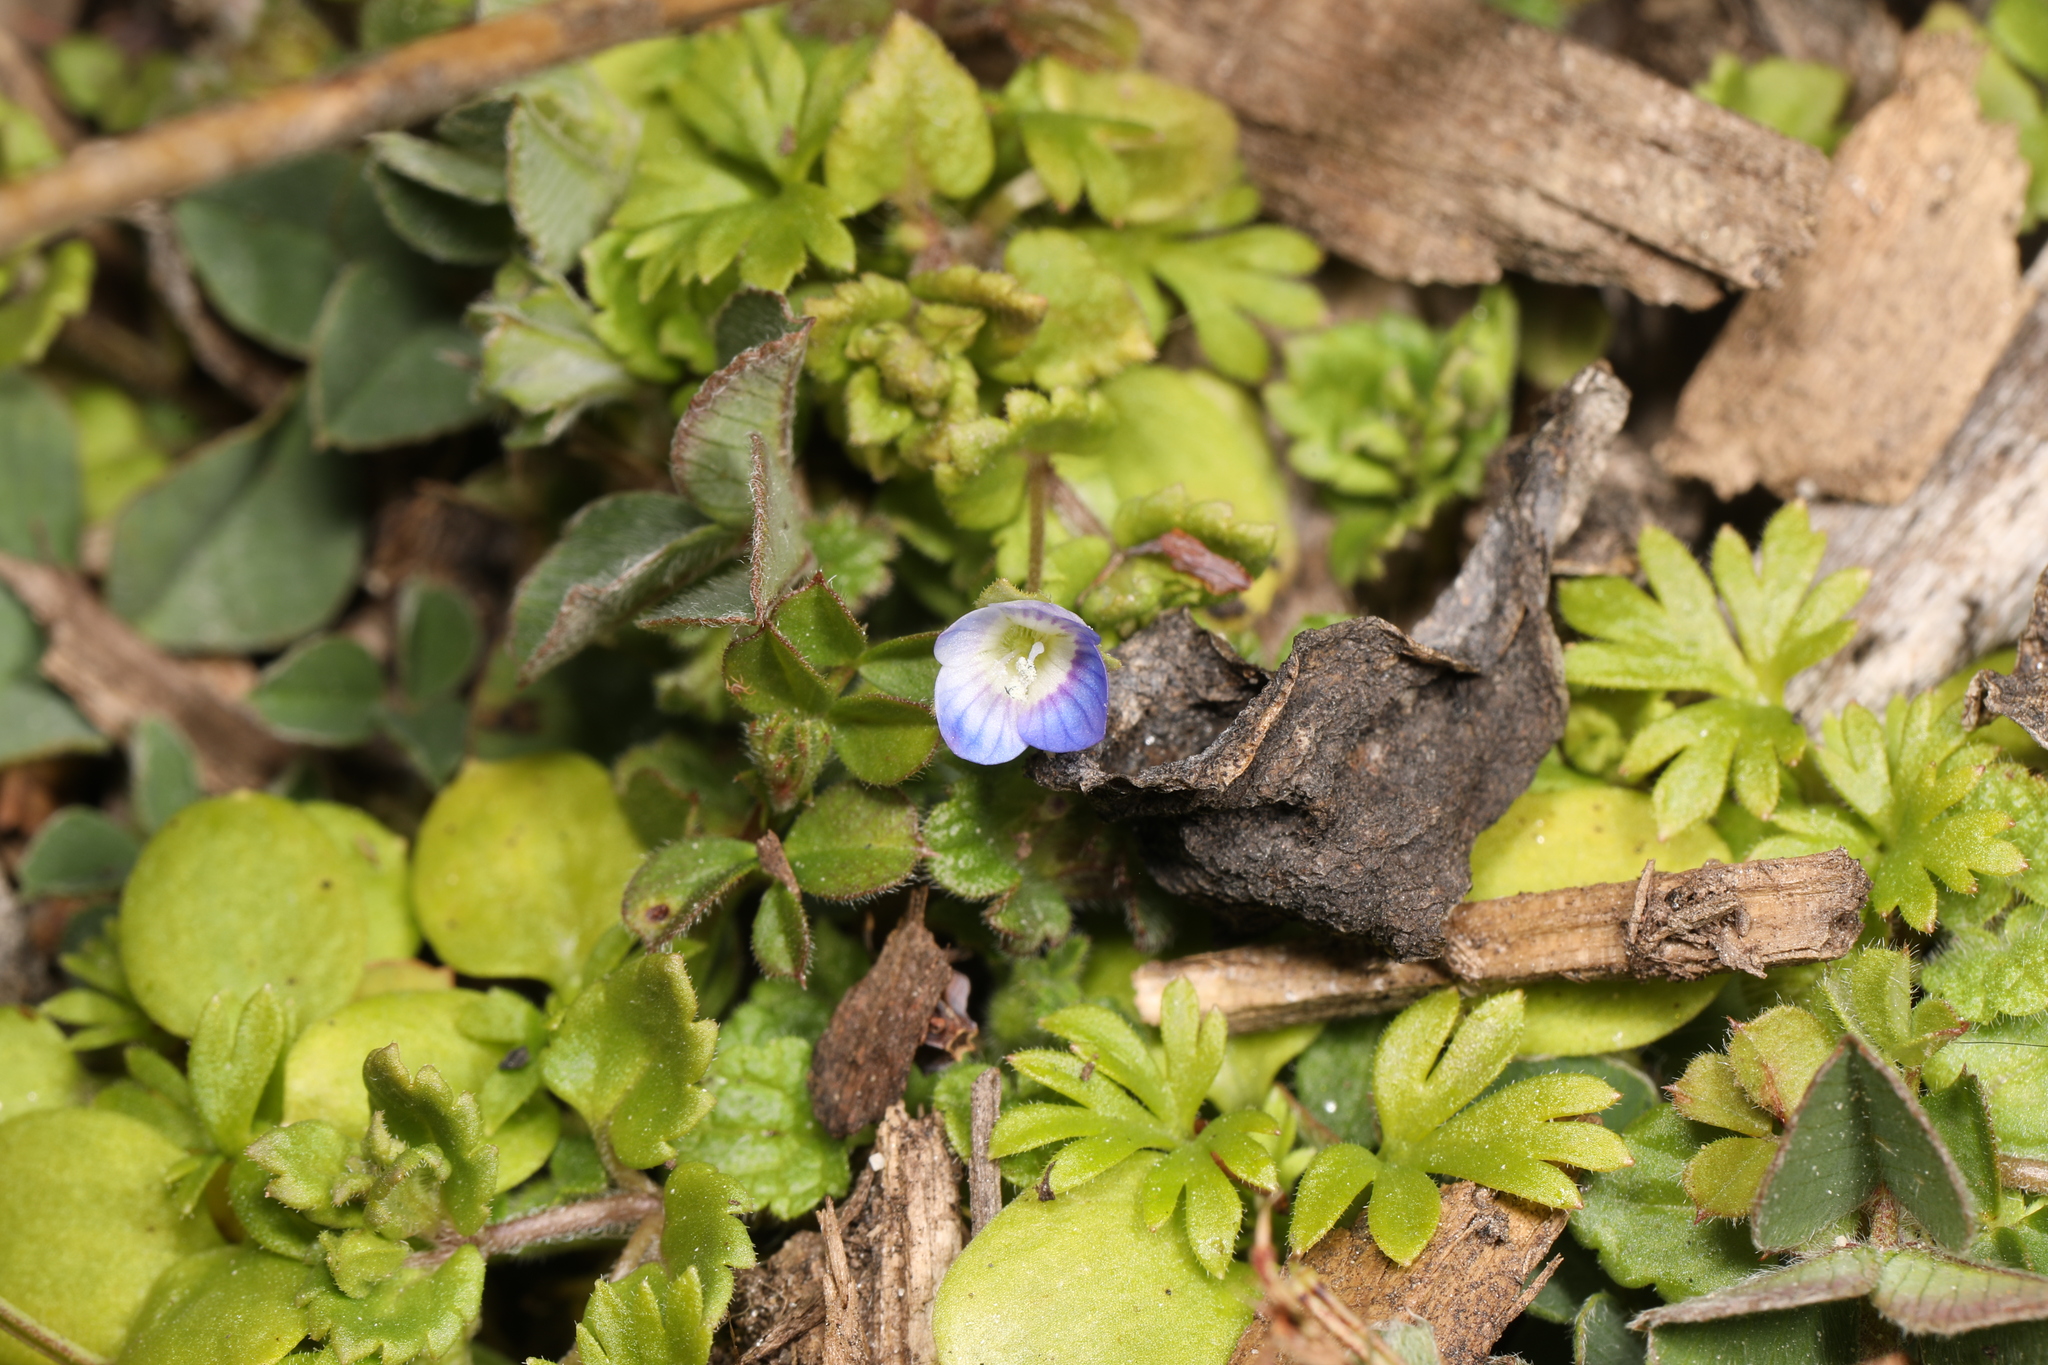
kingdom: Plantae
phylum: Tracheophyta
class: Magnoliopsida
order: Lamiales
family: Plantaginaceae
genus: Veronica
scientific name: Veronica persica
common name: Common field-speedwell
